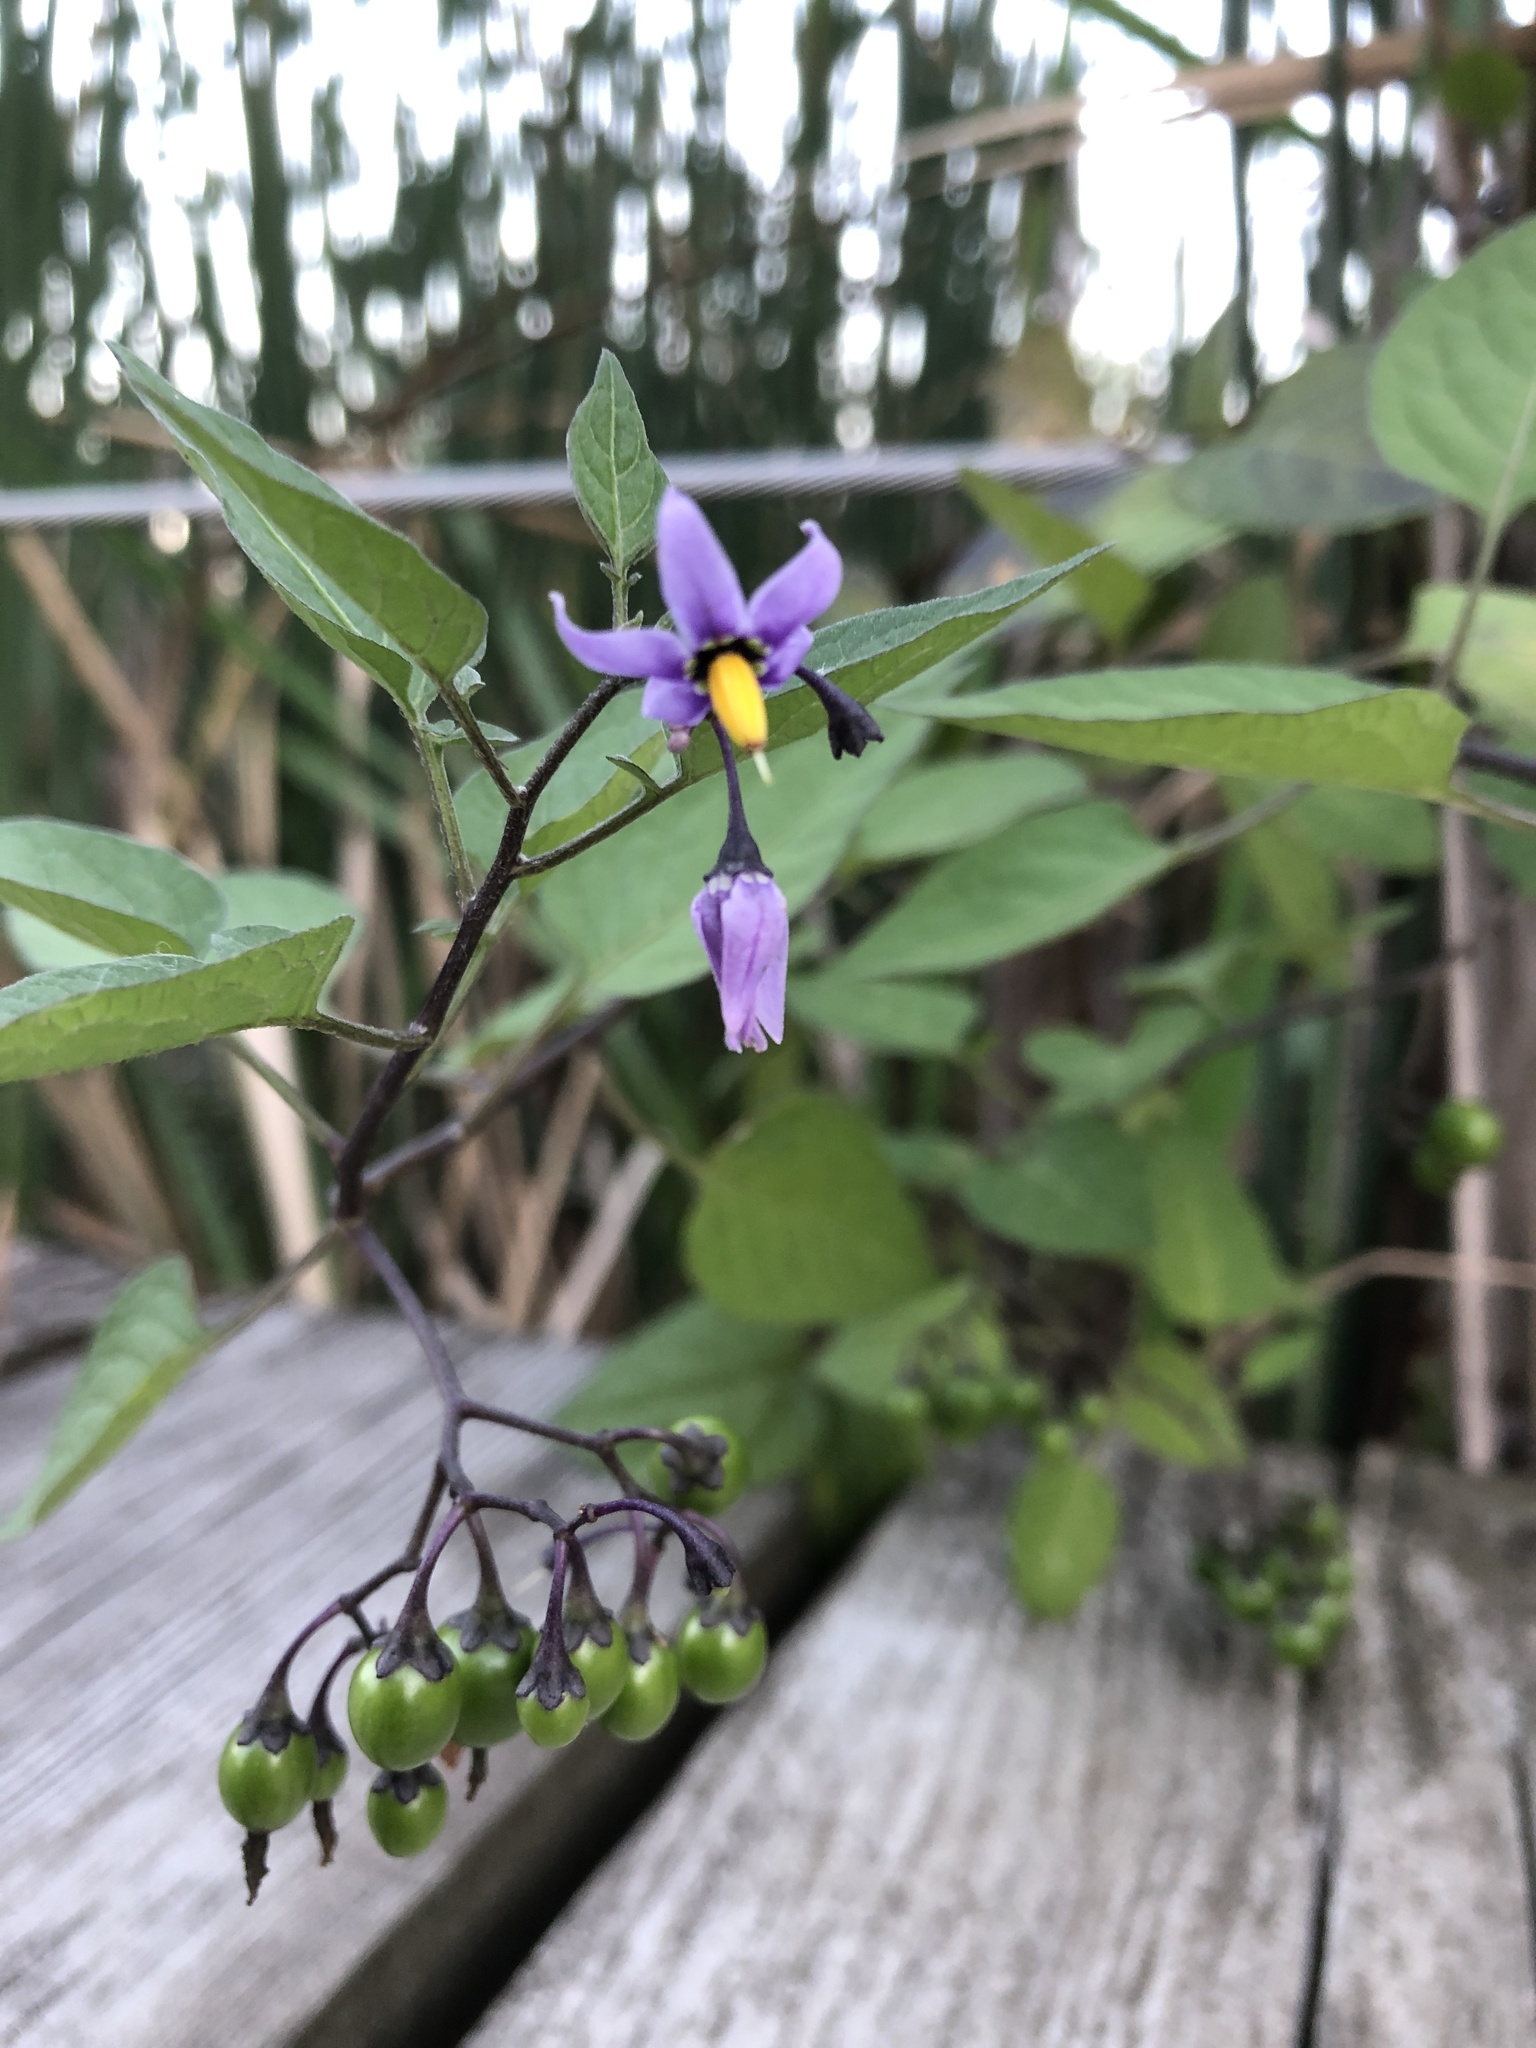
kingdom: Plantae
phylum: Tracheophyta
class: Magnoliopsida
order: Solanales
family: Solanaceae
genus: Solanum
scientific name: Solanum dulcamara
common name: Climbing nightshade
